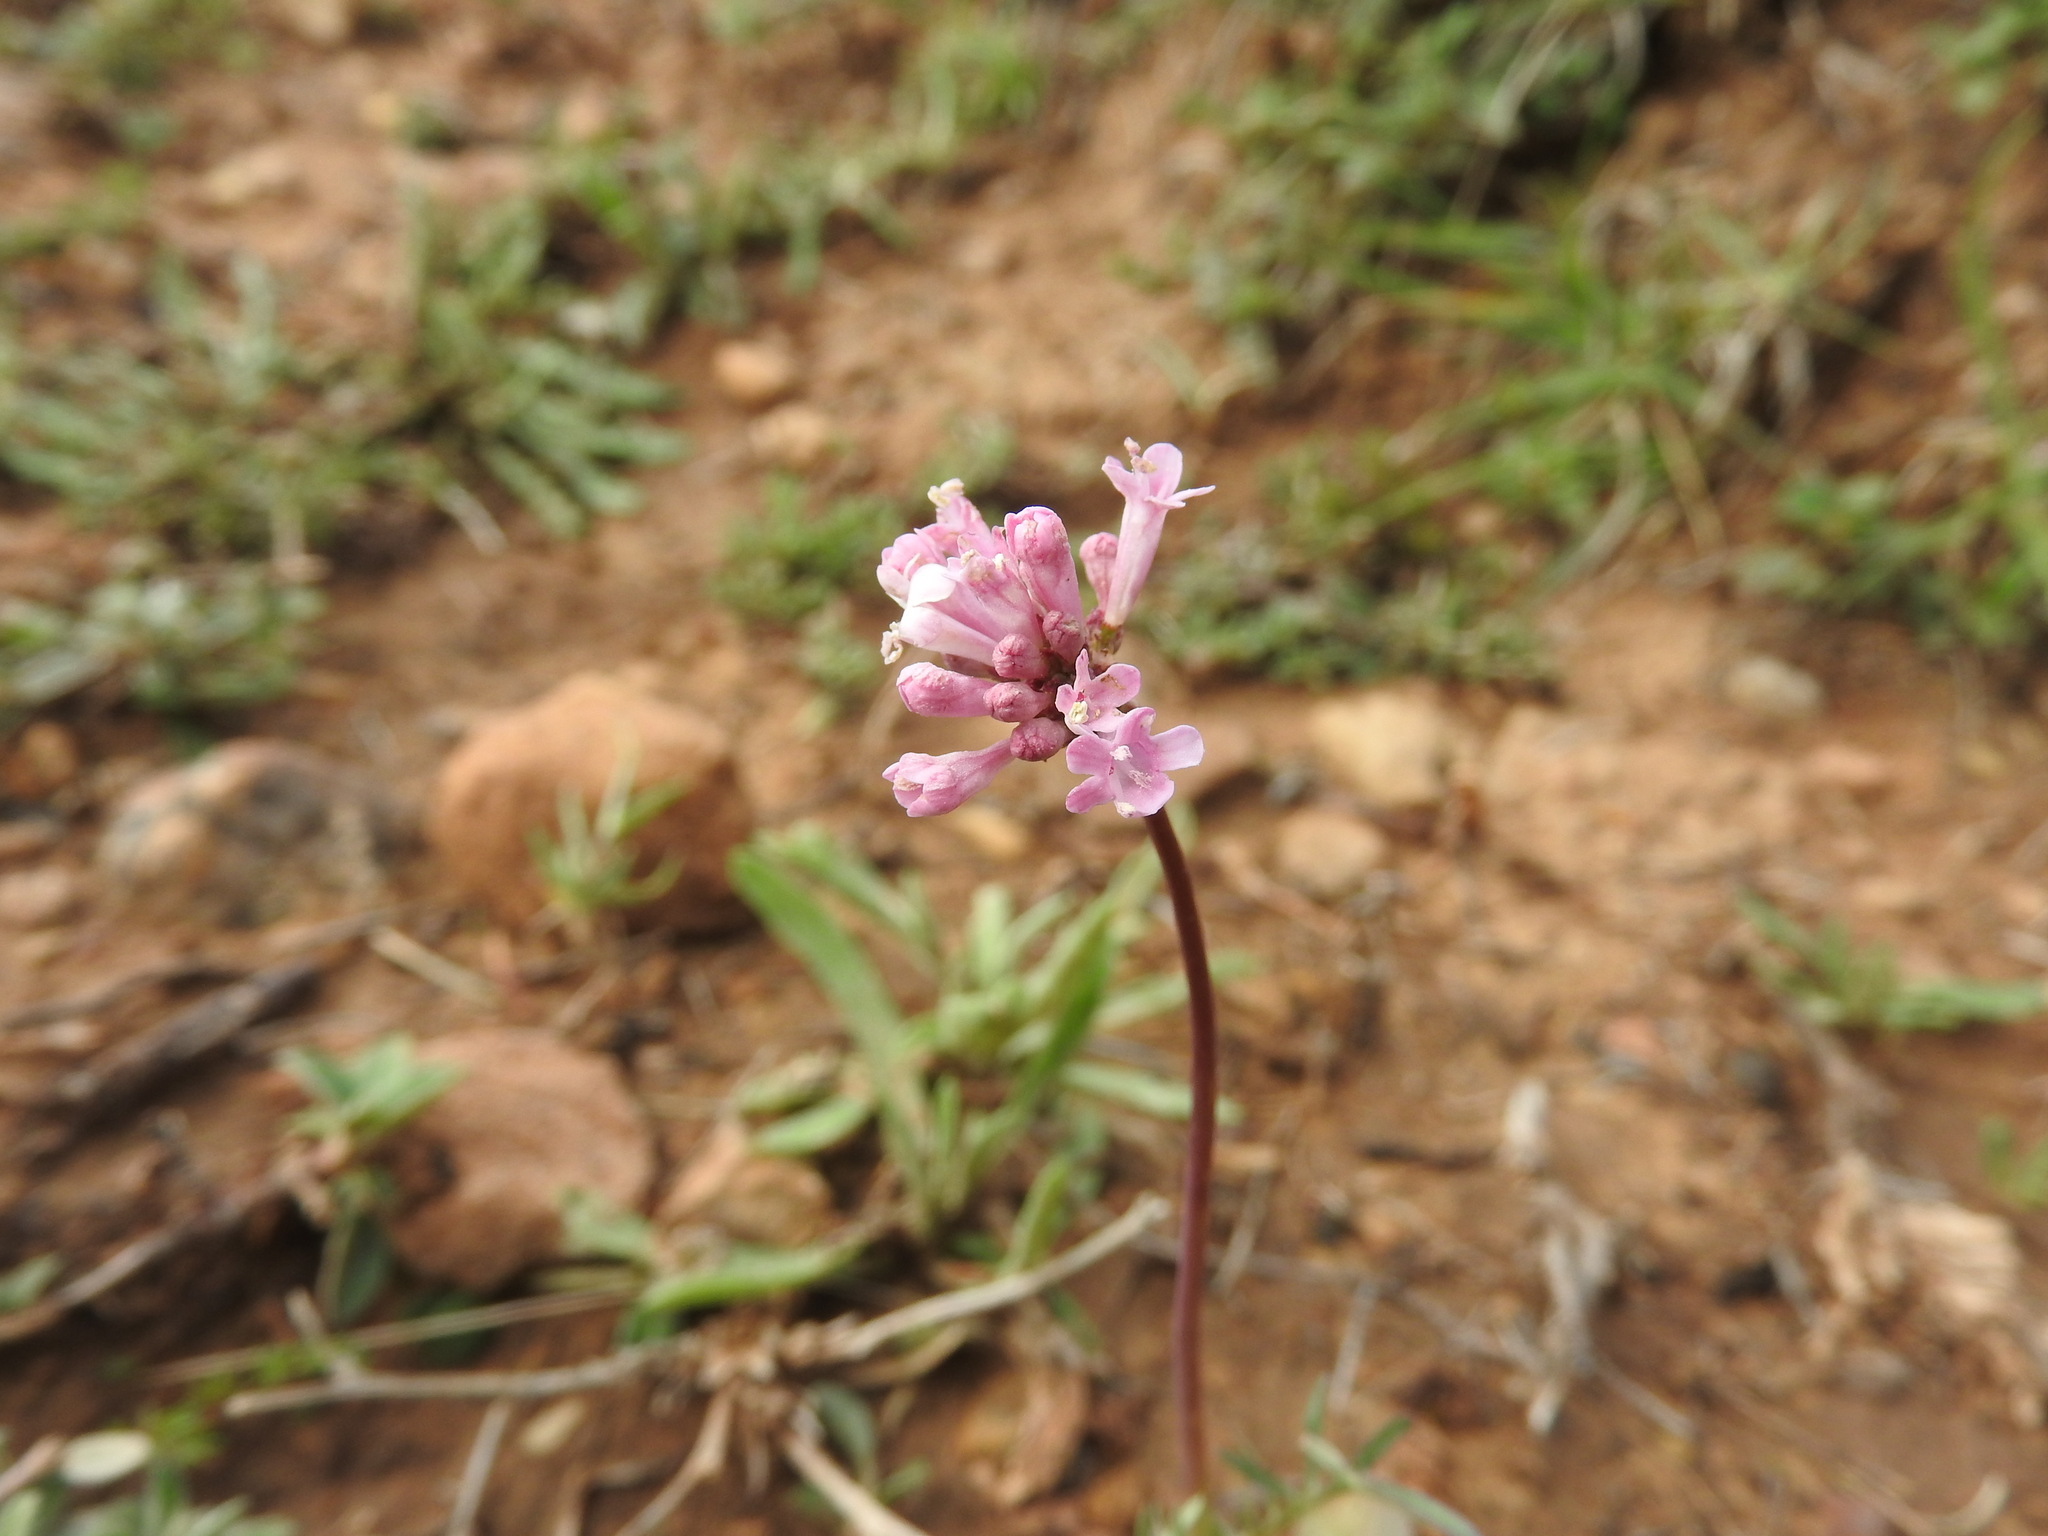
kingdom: Plantae
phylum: Tracheophyta
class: Magnoliopsida
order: Dipsacales
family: Caprifoliaceae
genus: Valeriana
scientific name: Valeriana tuberosa
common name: Tuberous valerian
